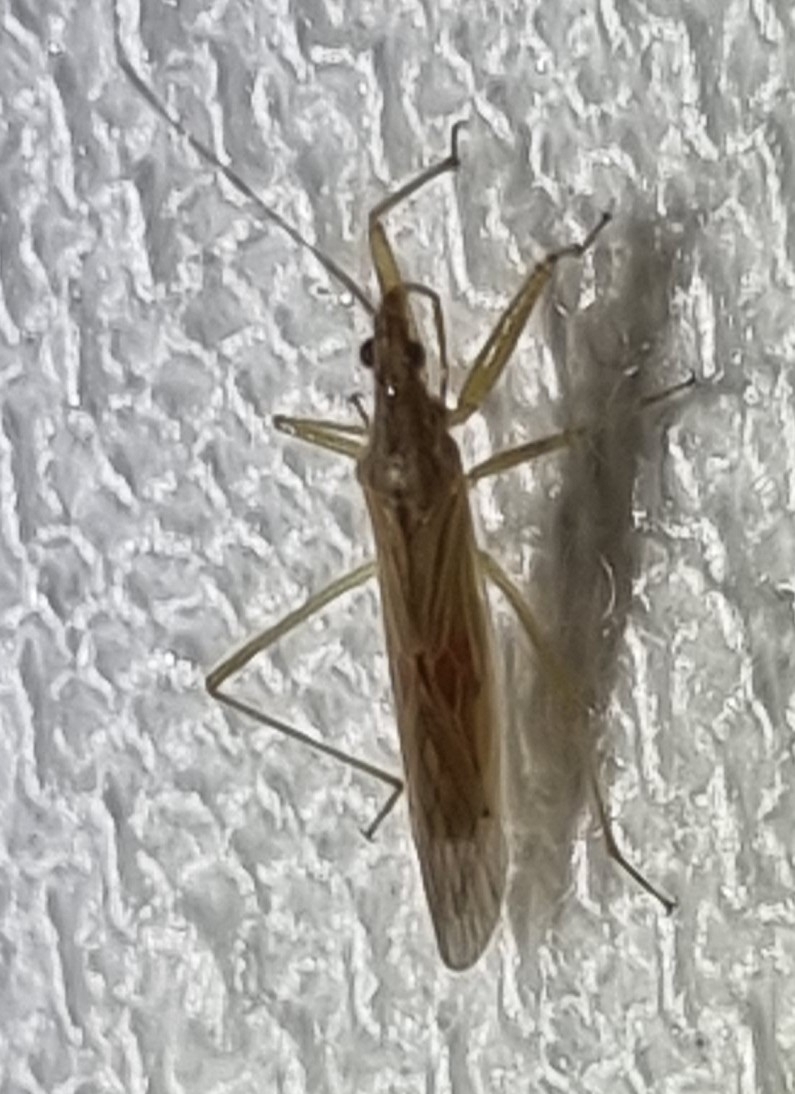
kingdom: Animalia
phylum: Arthropoda
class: Insecta
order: Hemiptera
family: Nabidae
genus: Nabis
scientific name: Nabis kinbergii
